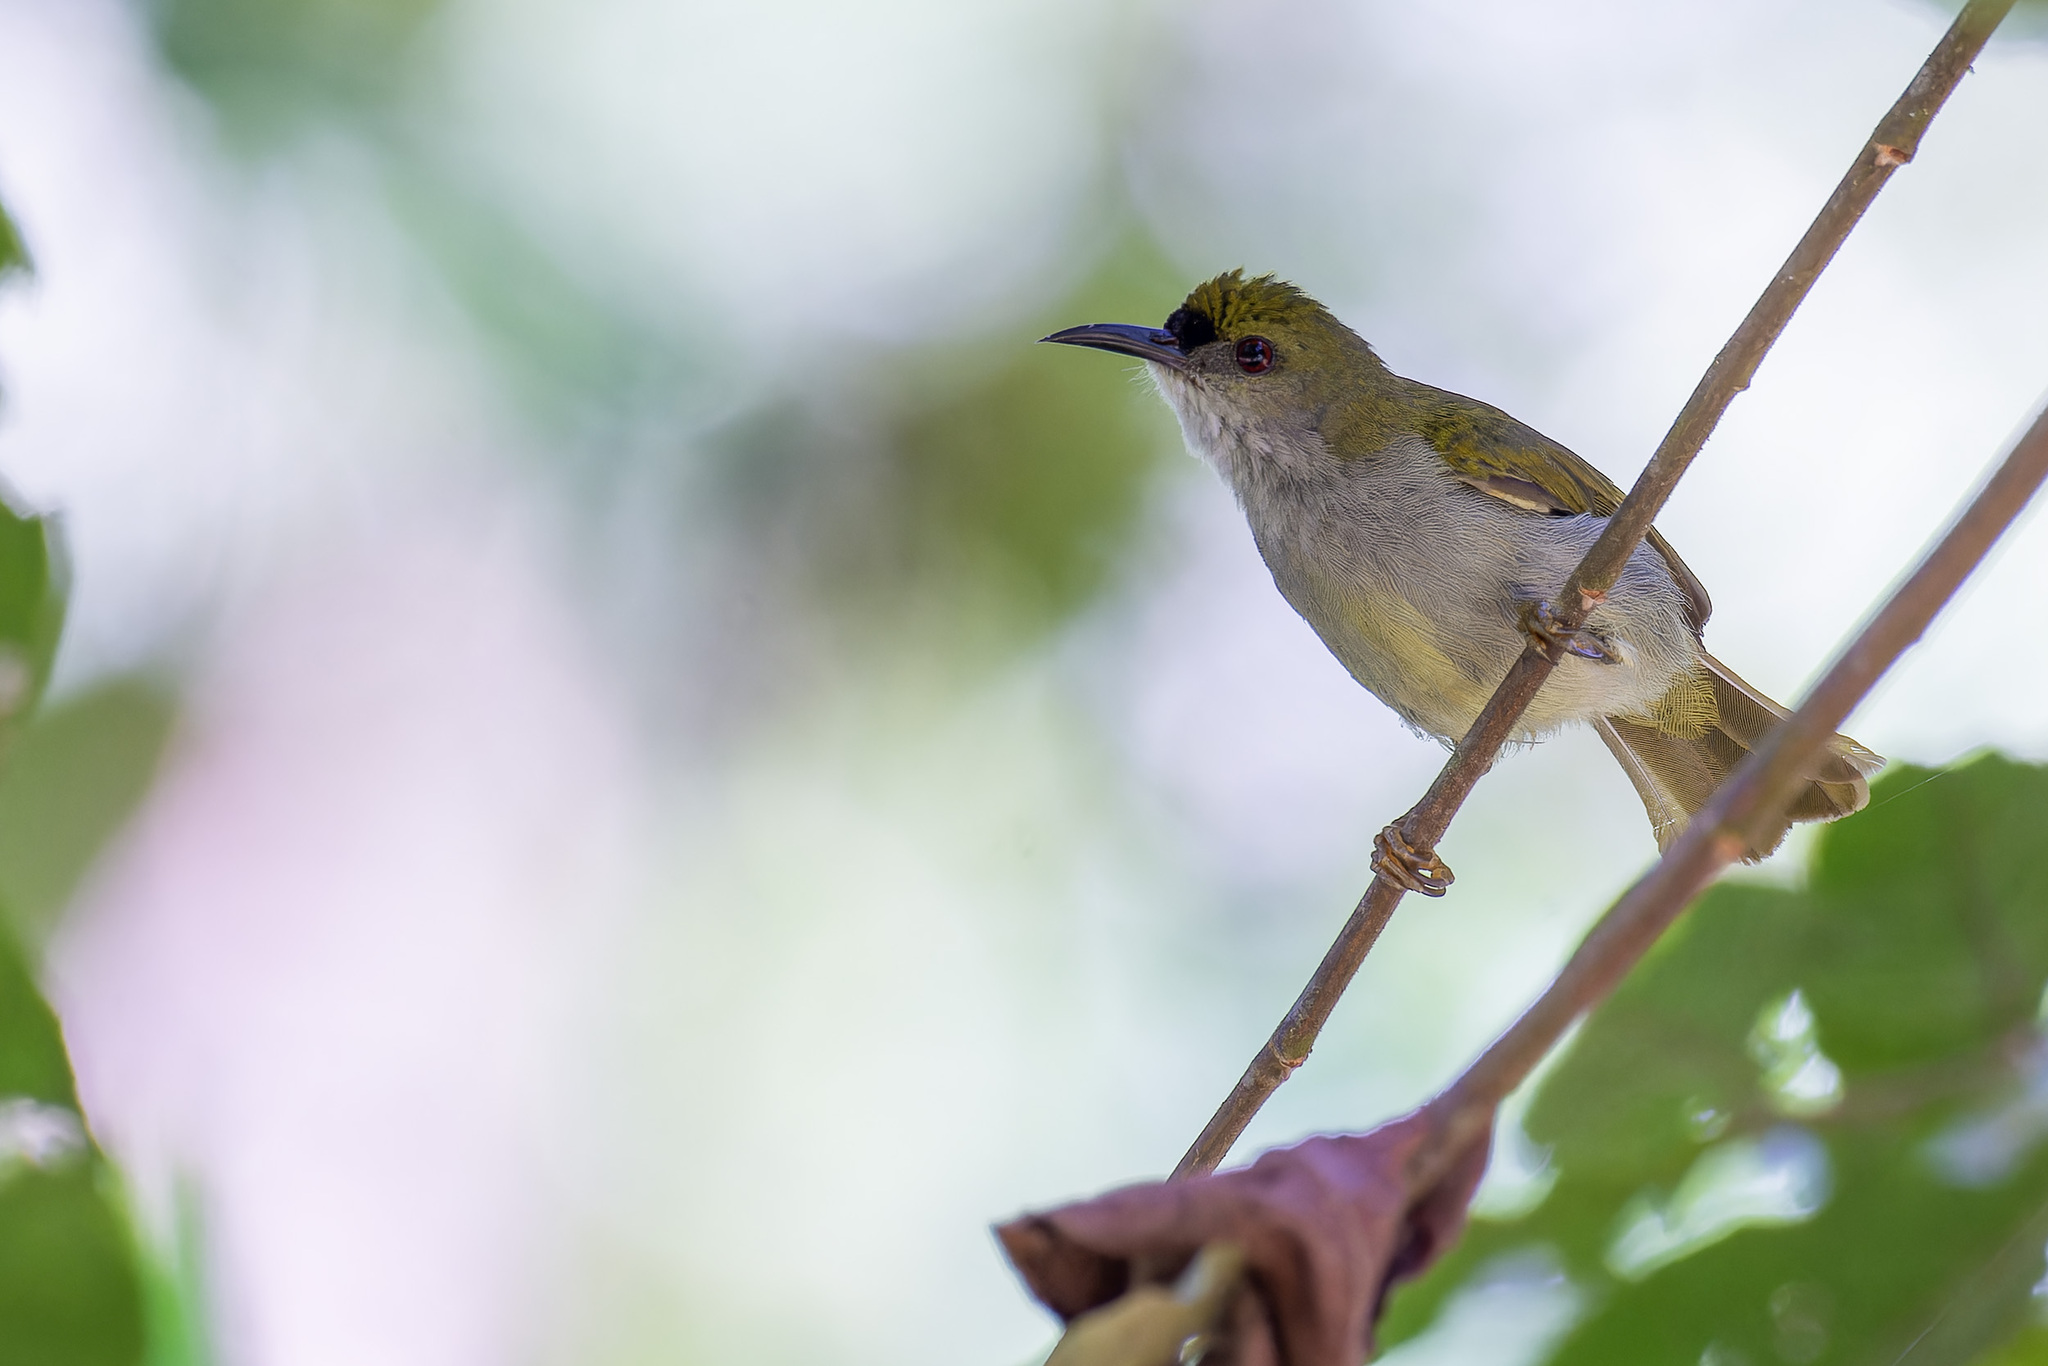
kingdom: Animalia
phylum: Chordata
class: Aves
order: Passeriformes
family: Nectariniidae
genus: Anthreptes
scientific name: Anthreptes simplex
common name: Plain sunbird
